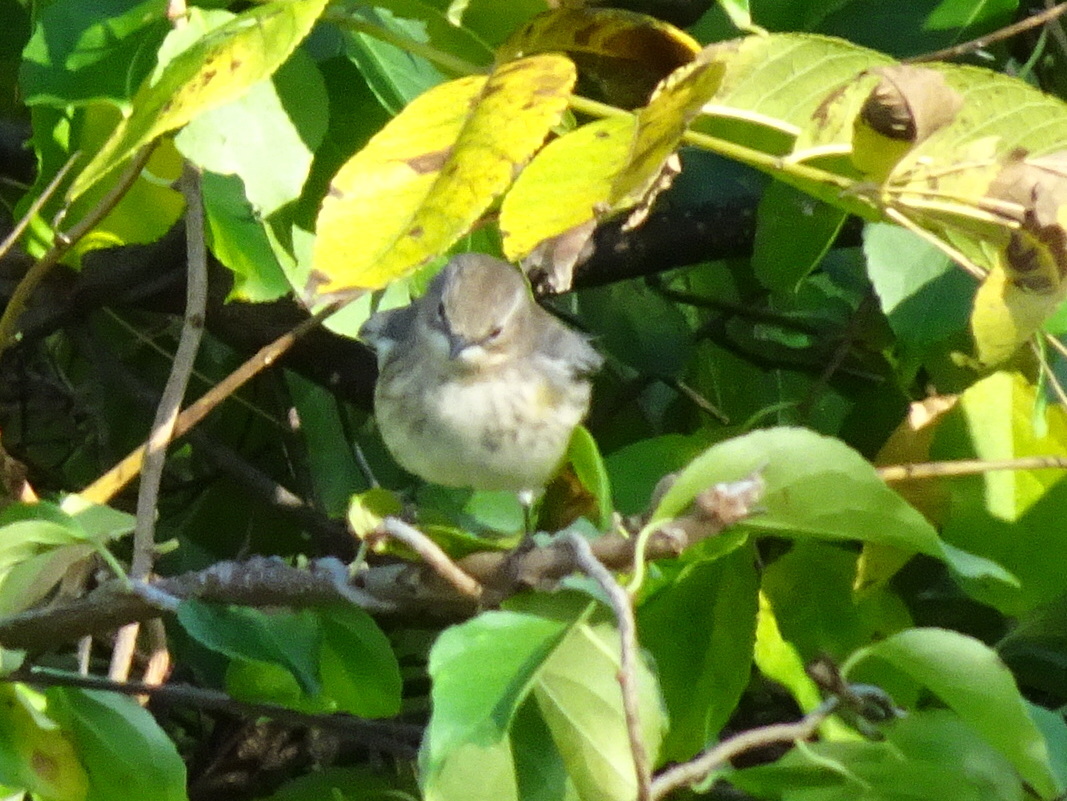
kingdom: Animalia
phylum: Chordata
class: Aves
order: Passeriformes
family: Parulidae
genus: Setophaga
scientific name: Setophaga coronata
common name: Myrtle warbler
